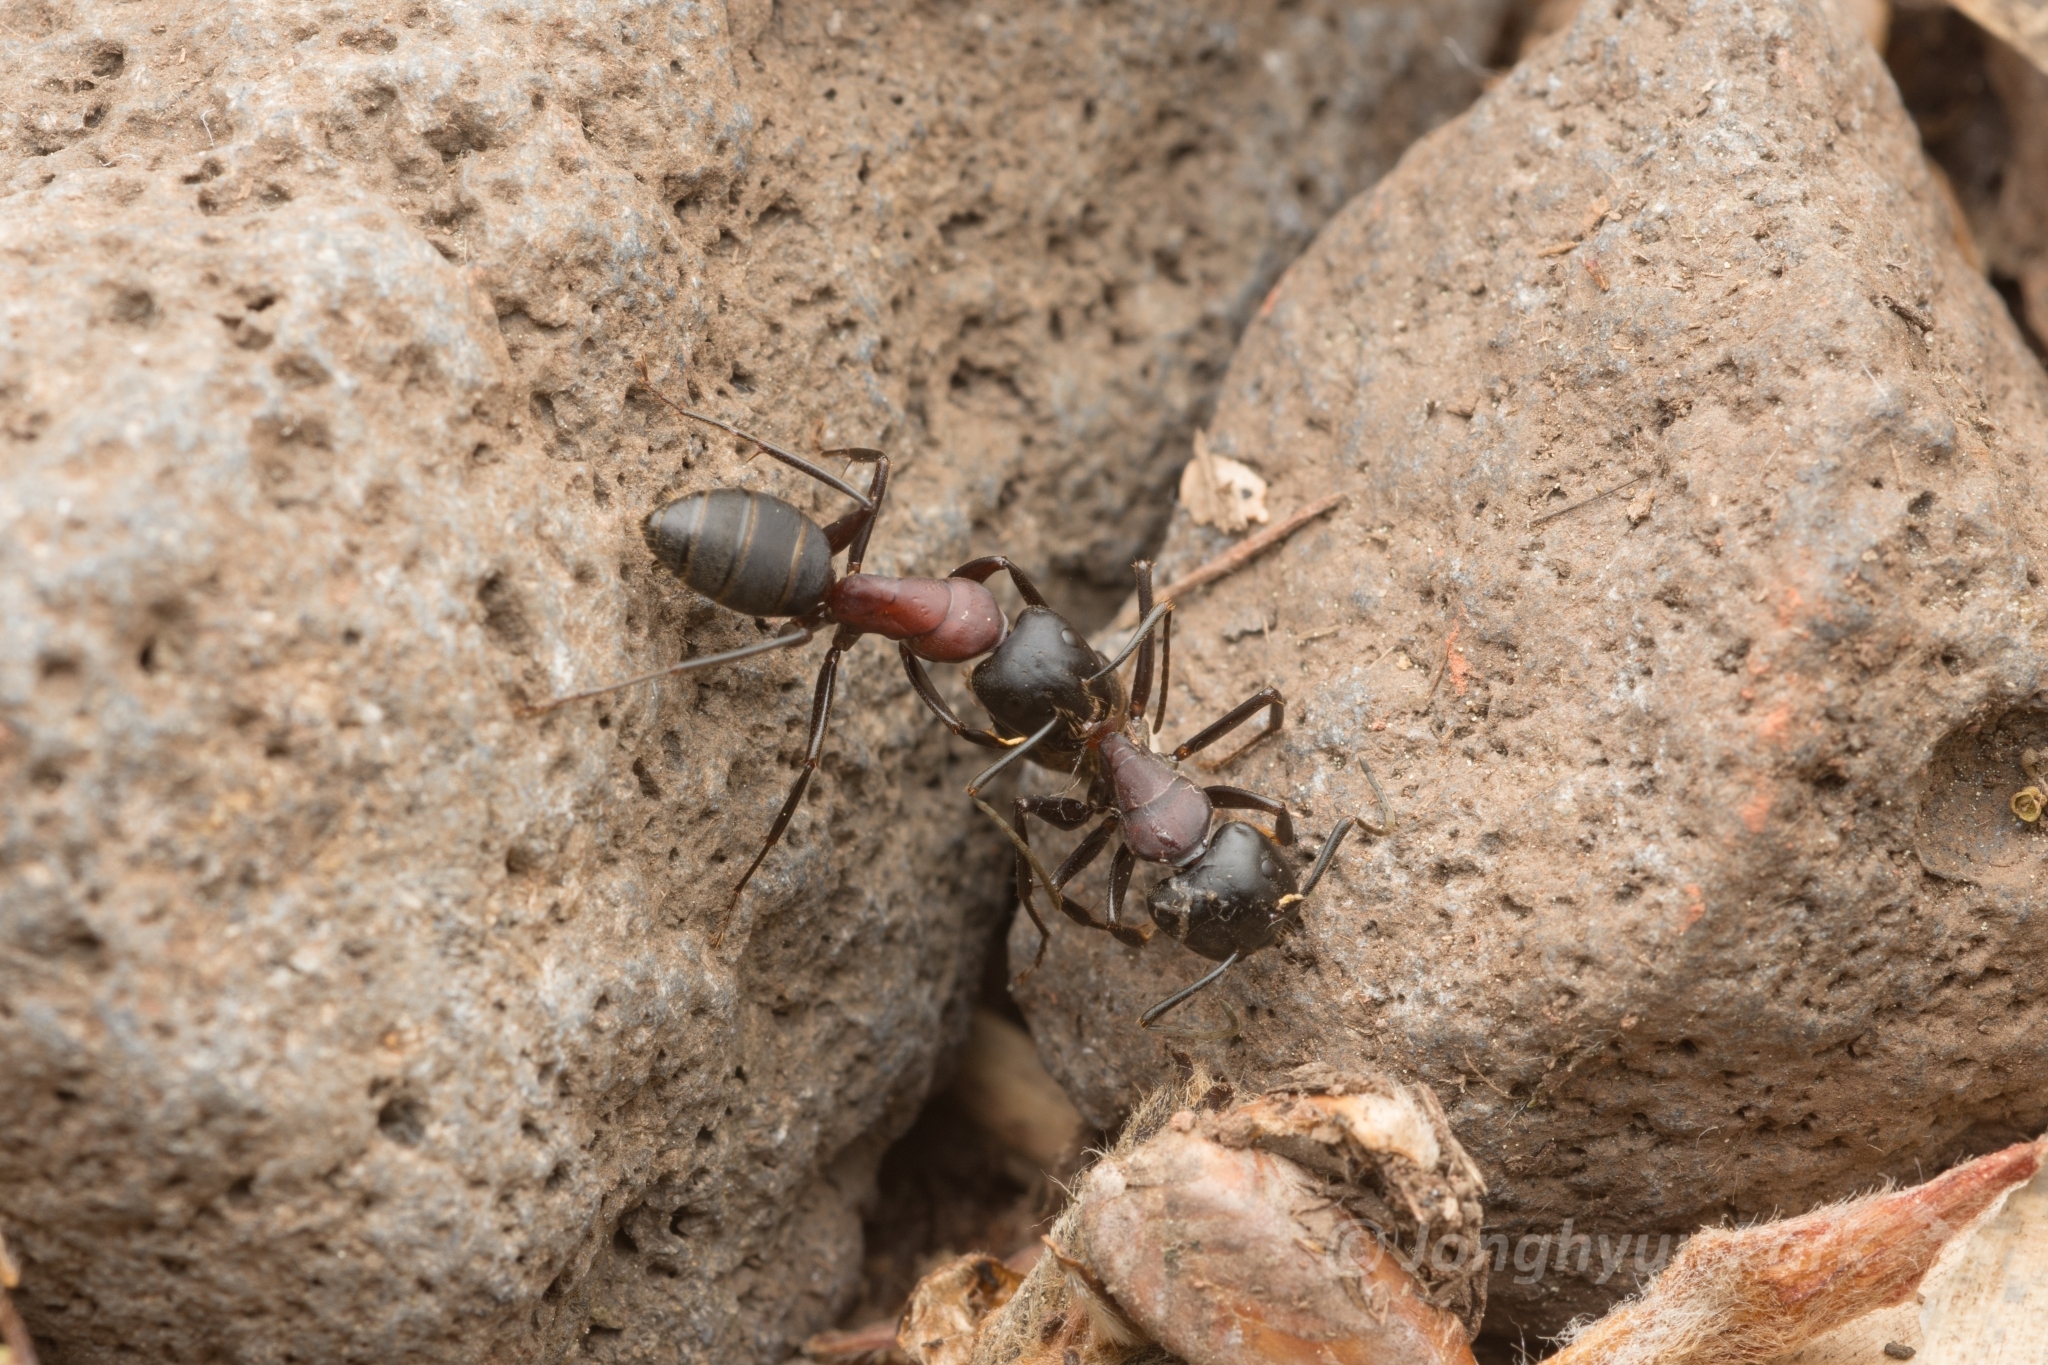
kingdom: Animalia
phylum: Arthropoda
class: Insecta
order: Hymenoptera
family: Formicidae
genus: Camponotus
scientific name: Camponotus atrox
